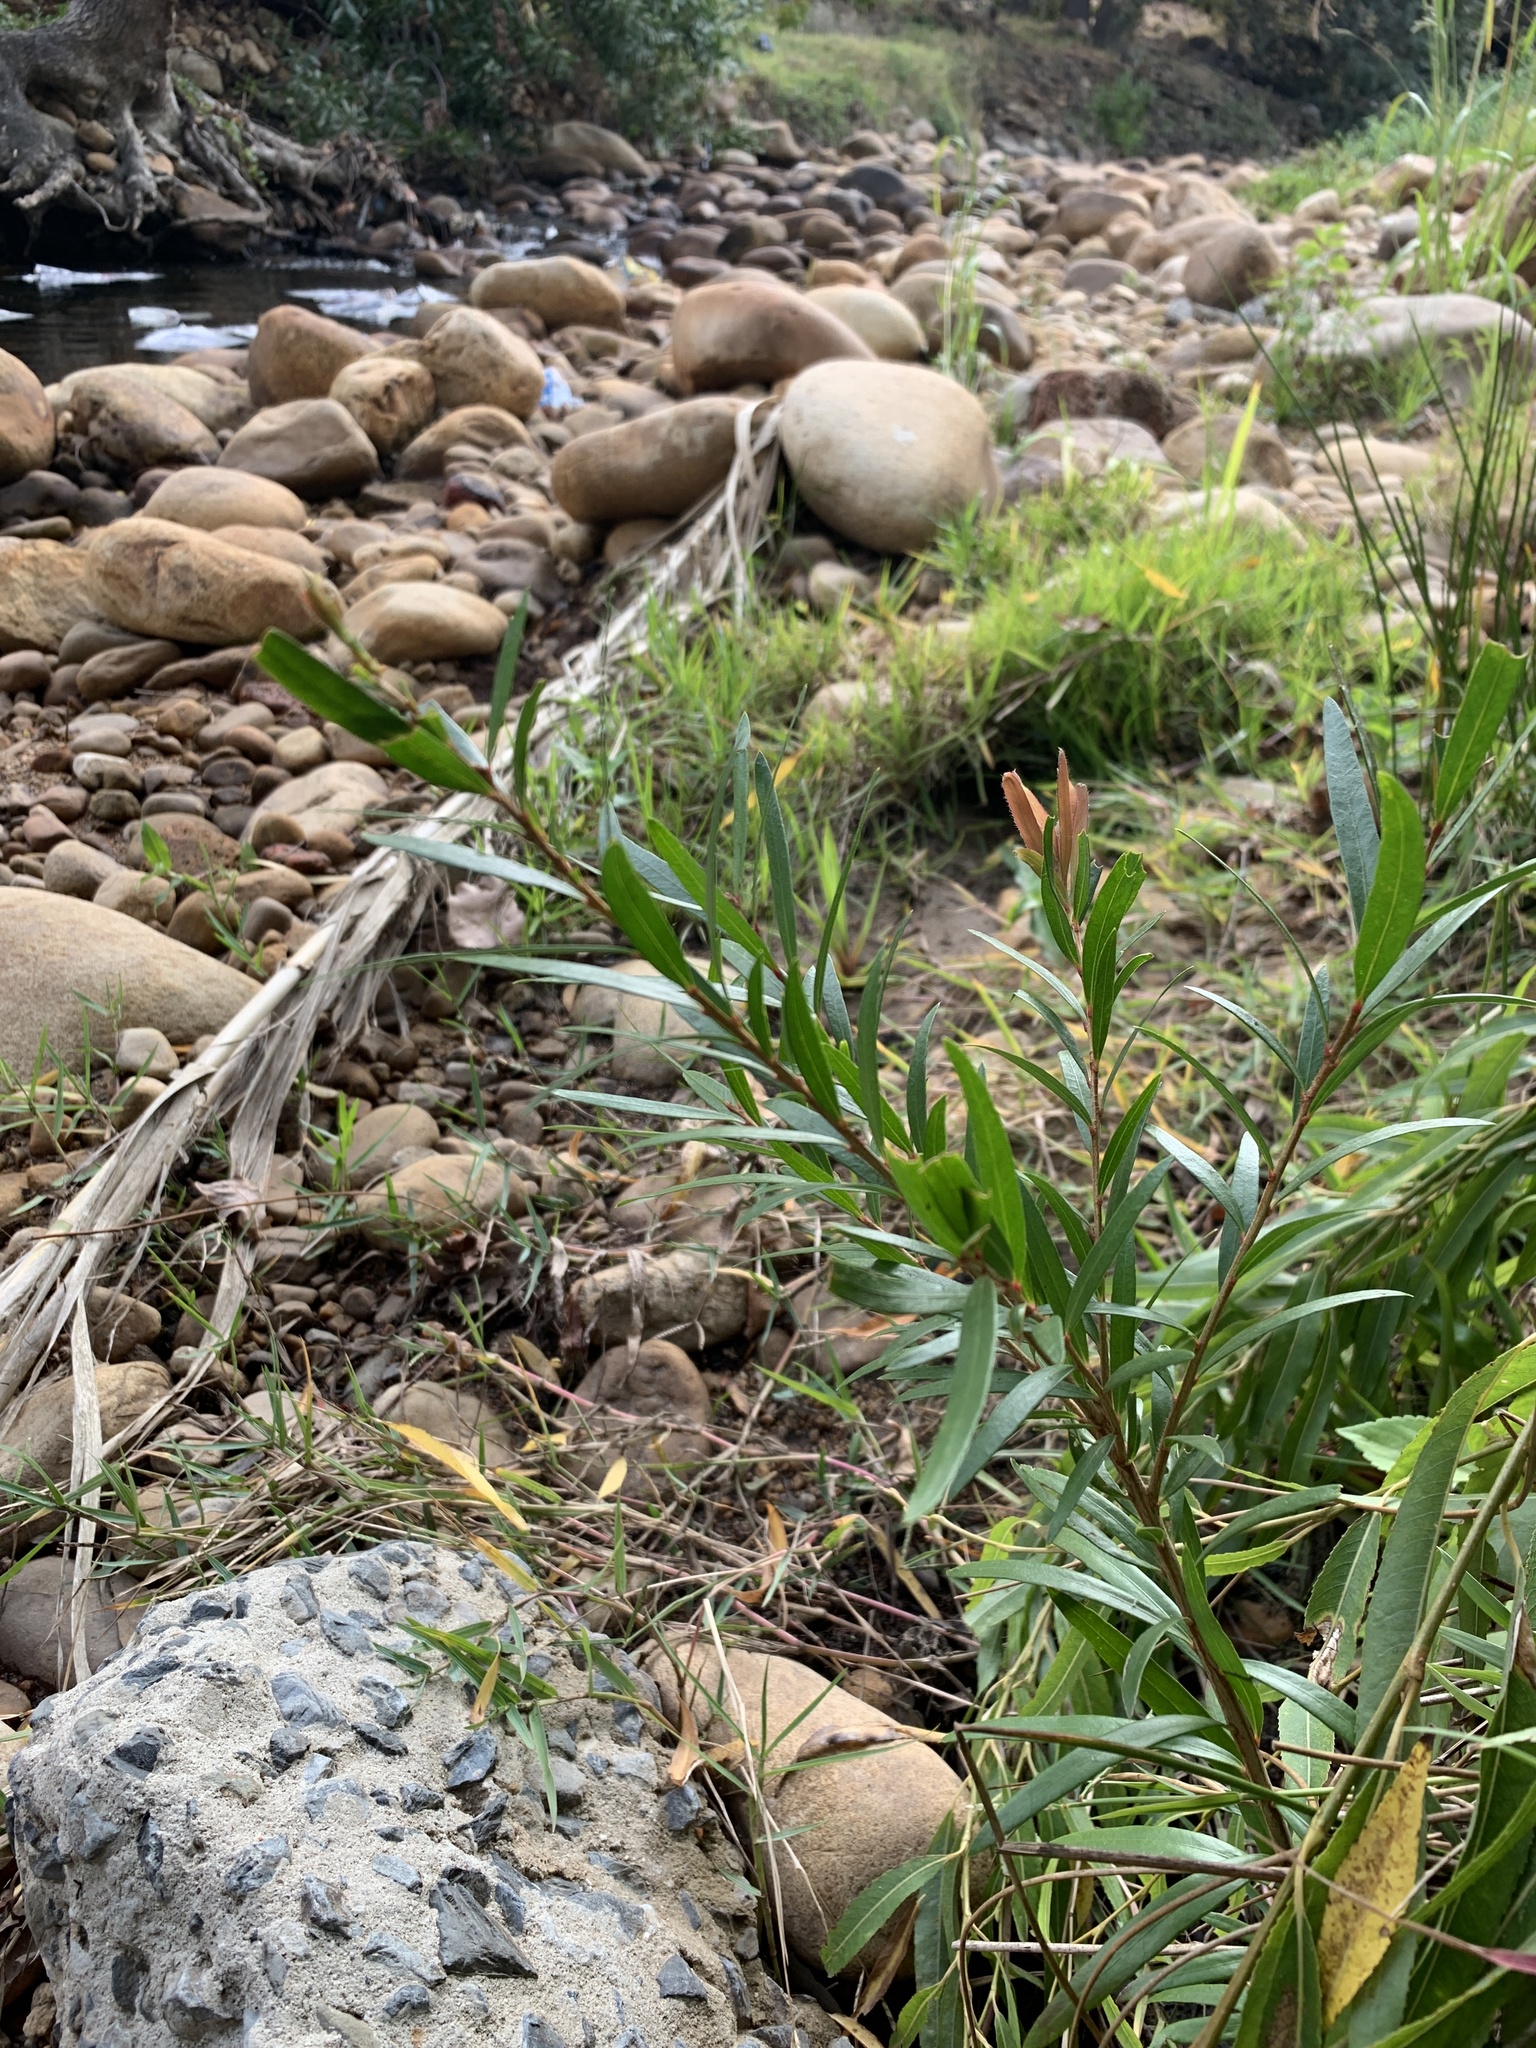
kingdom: Plantae
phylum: Tracheophyta
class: Magnoliopsida
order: Myrtales
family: Myrtaceae
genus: Callistemon
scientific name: Callistemon viminalis
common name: Drooping bottlebrush
